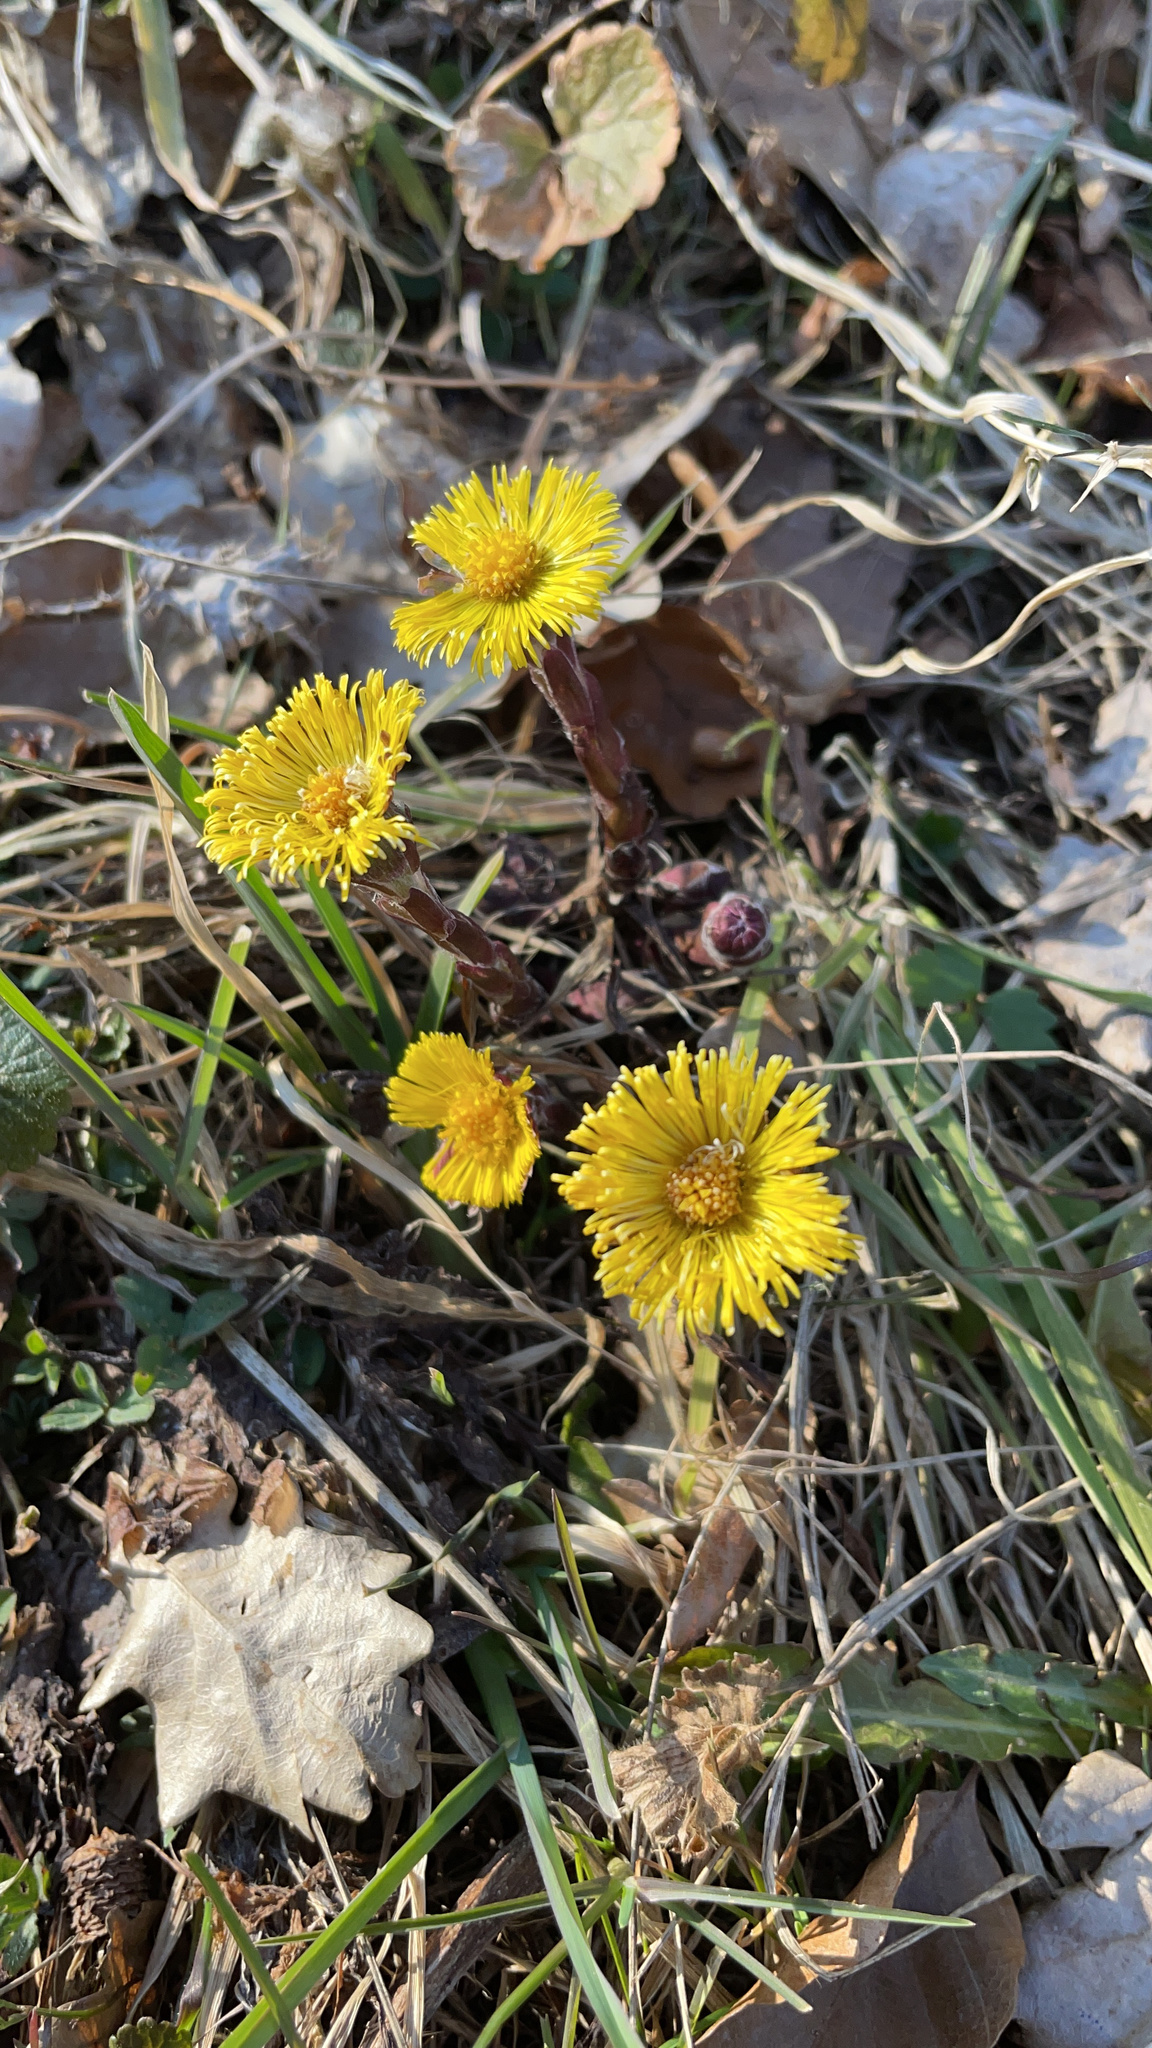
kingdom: Plantae
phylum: Tracheophyta
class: Magnoliopsida
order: Asterales
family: Asteraceae
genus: Tussilago
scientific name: Tussilago farfara
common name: Coltsfoot
